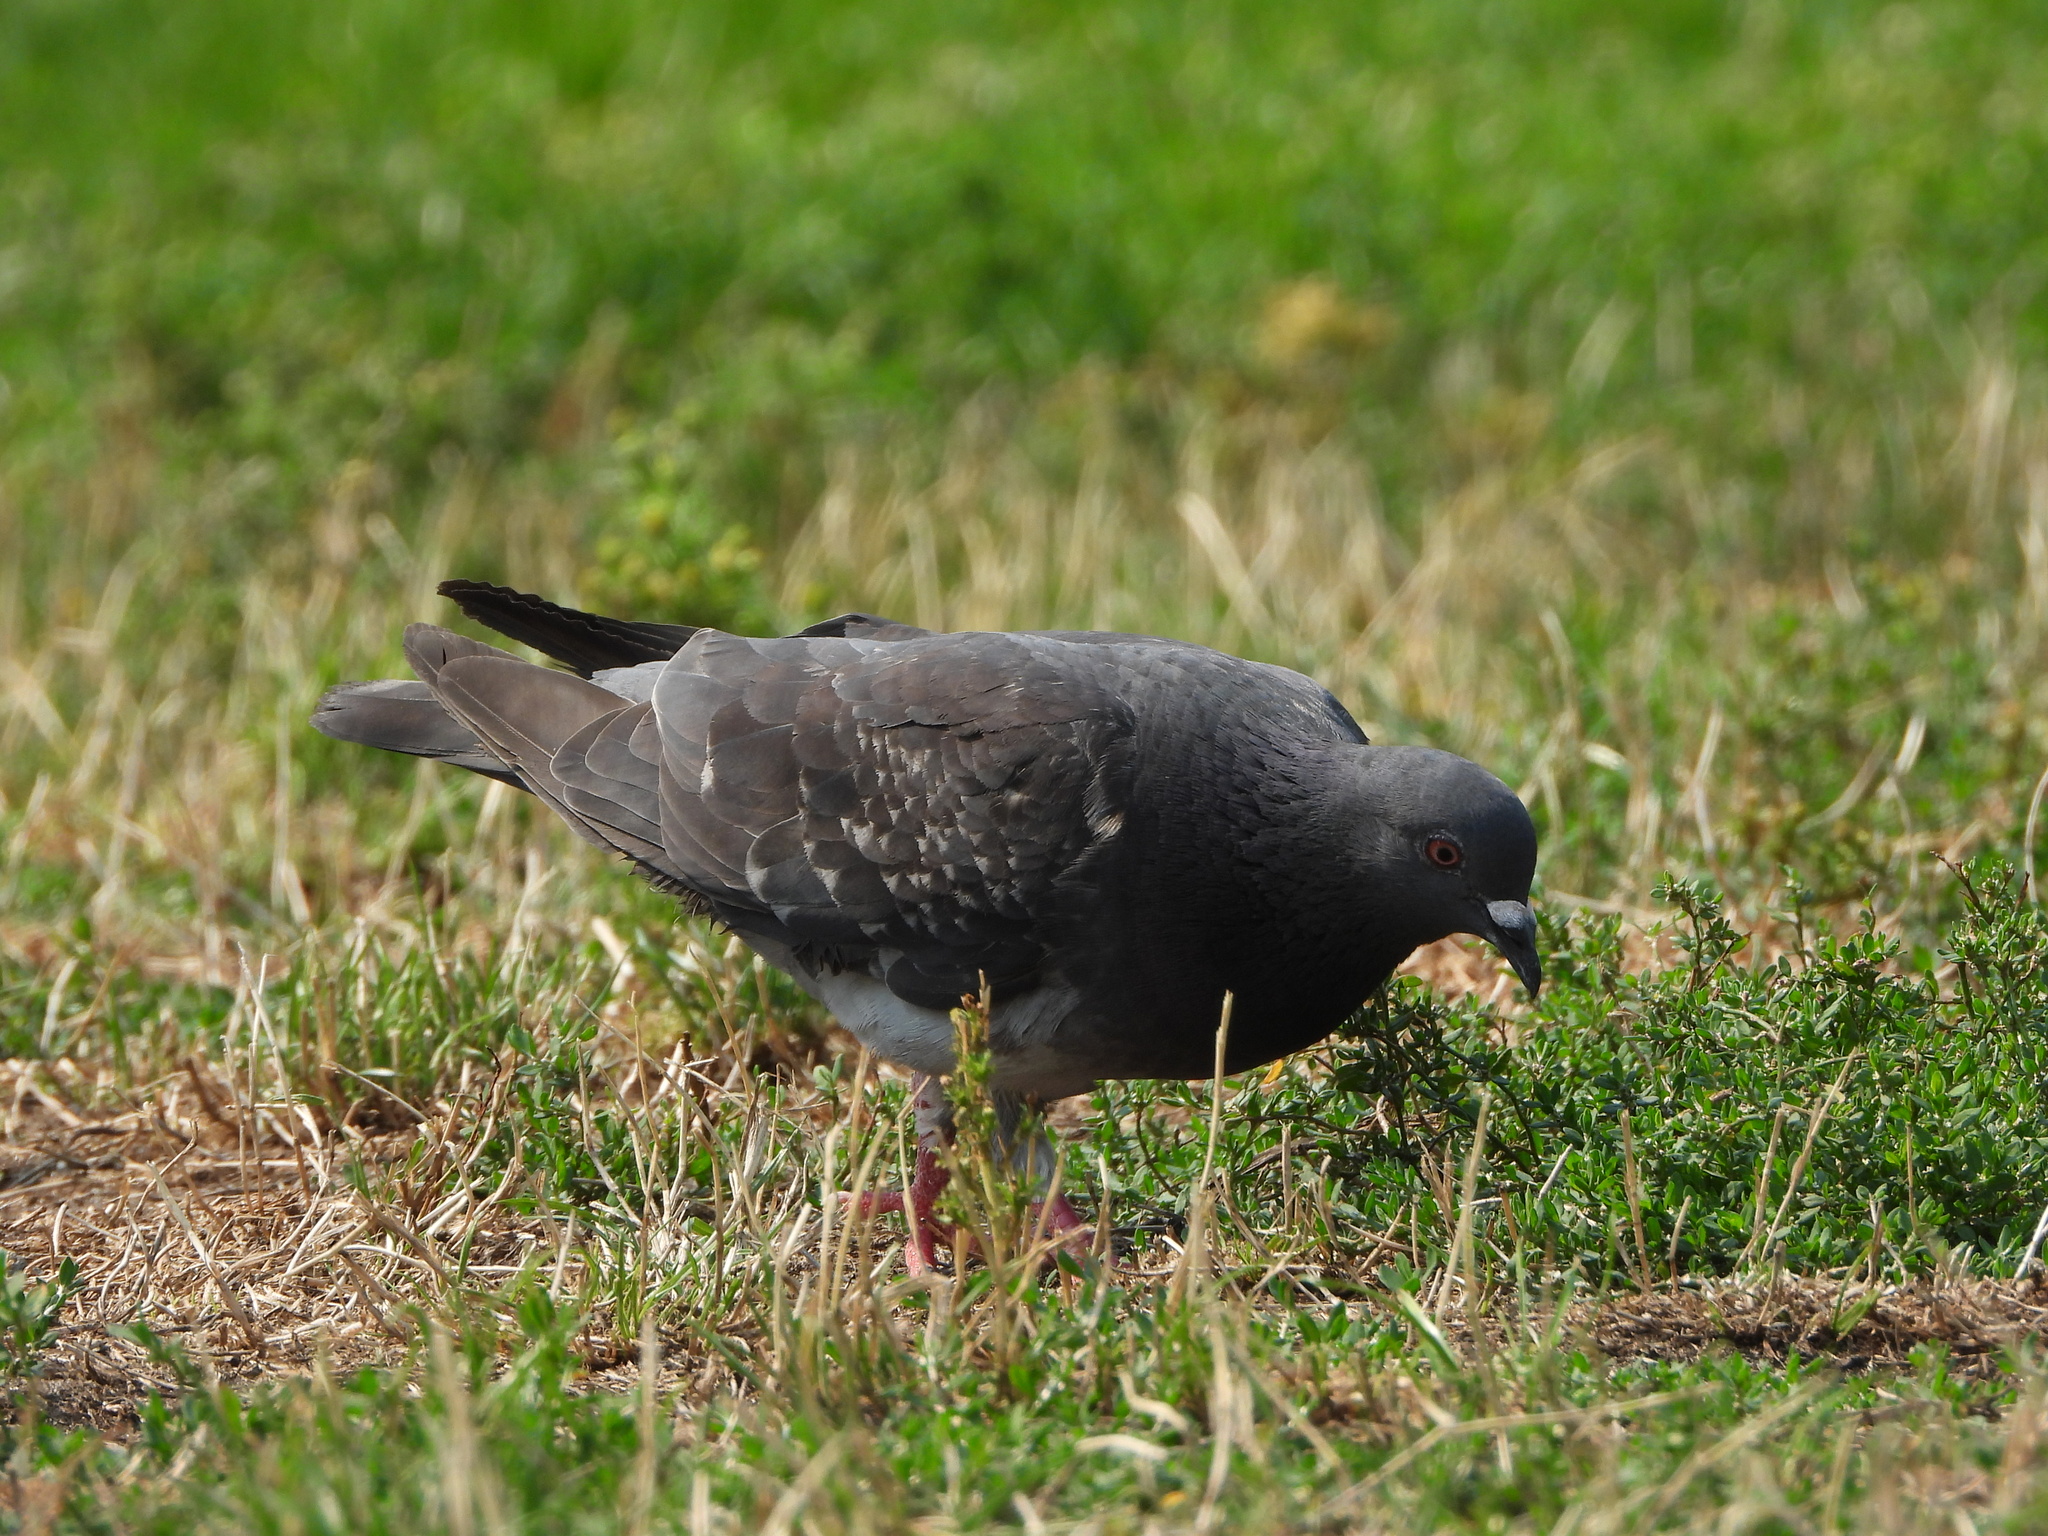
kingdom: Animalia
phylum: Chordata
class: Aves
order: Columbiformes
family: Columbidae
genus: Columba
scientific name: Columba livia
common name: Rock pigeon
